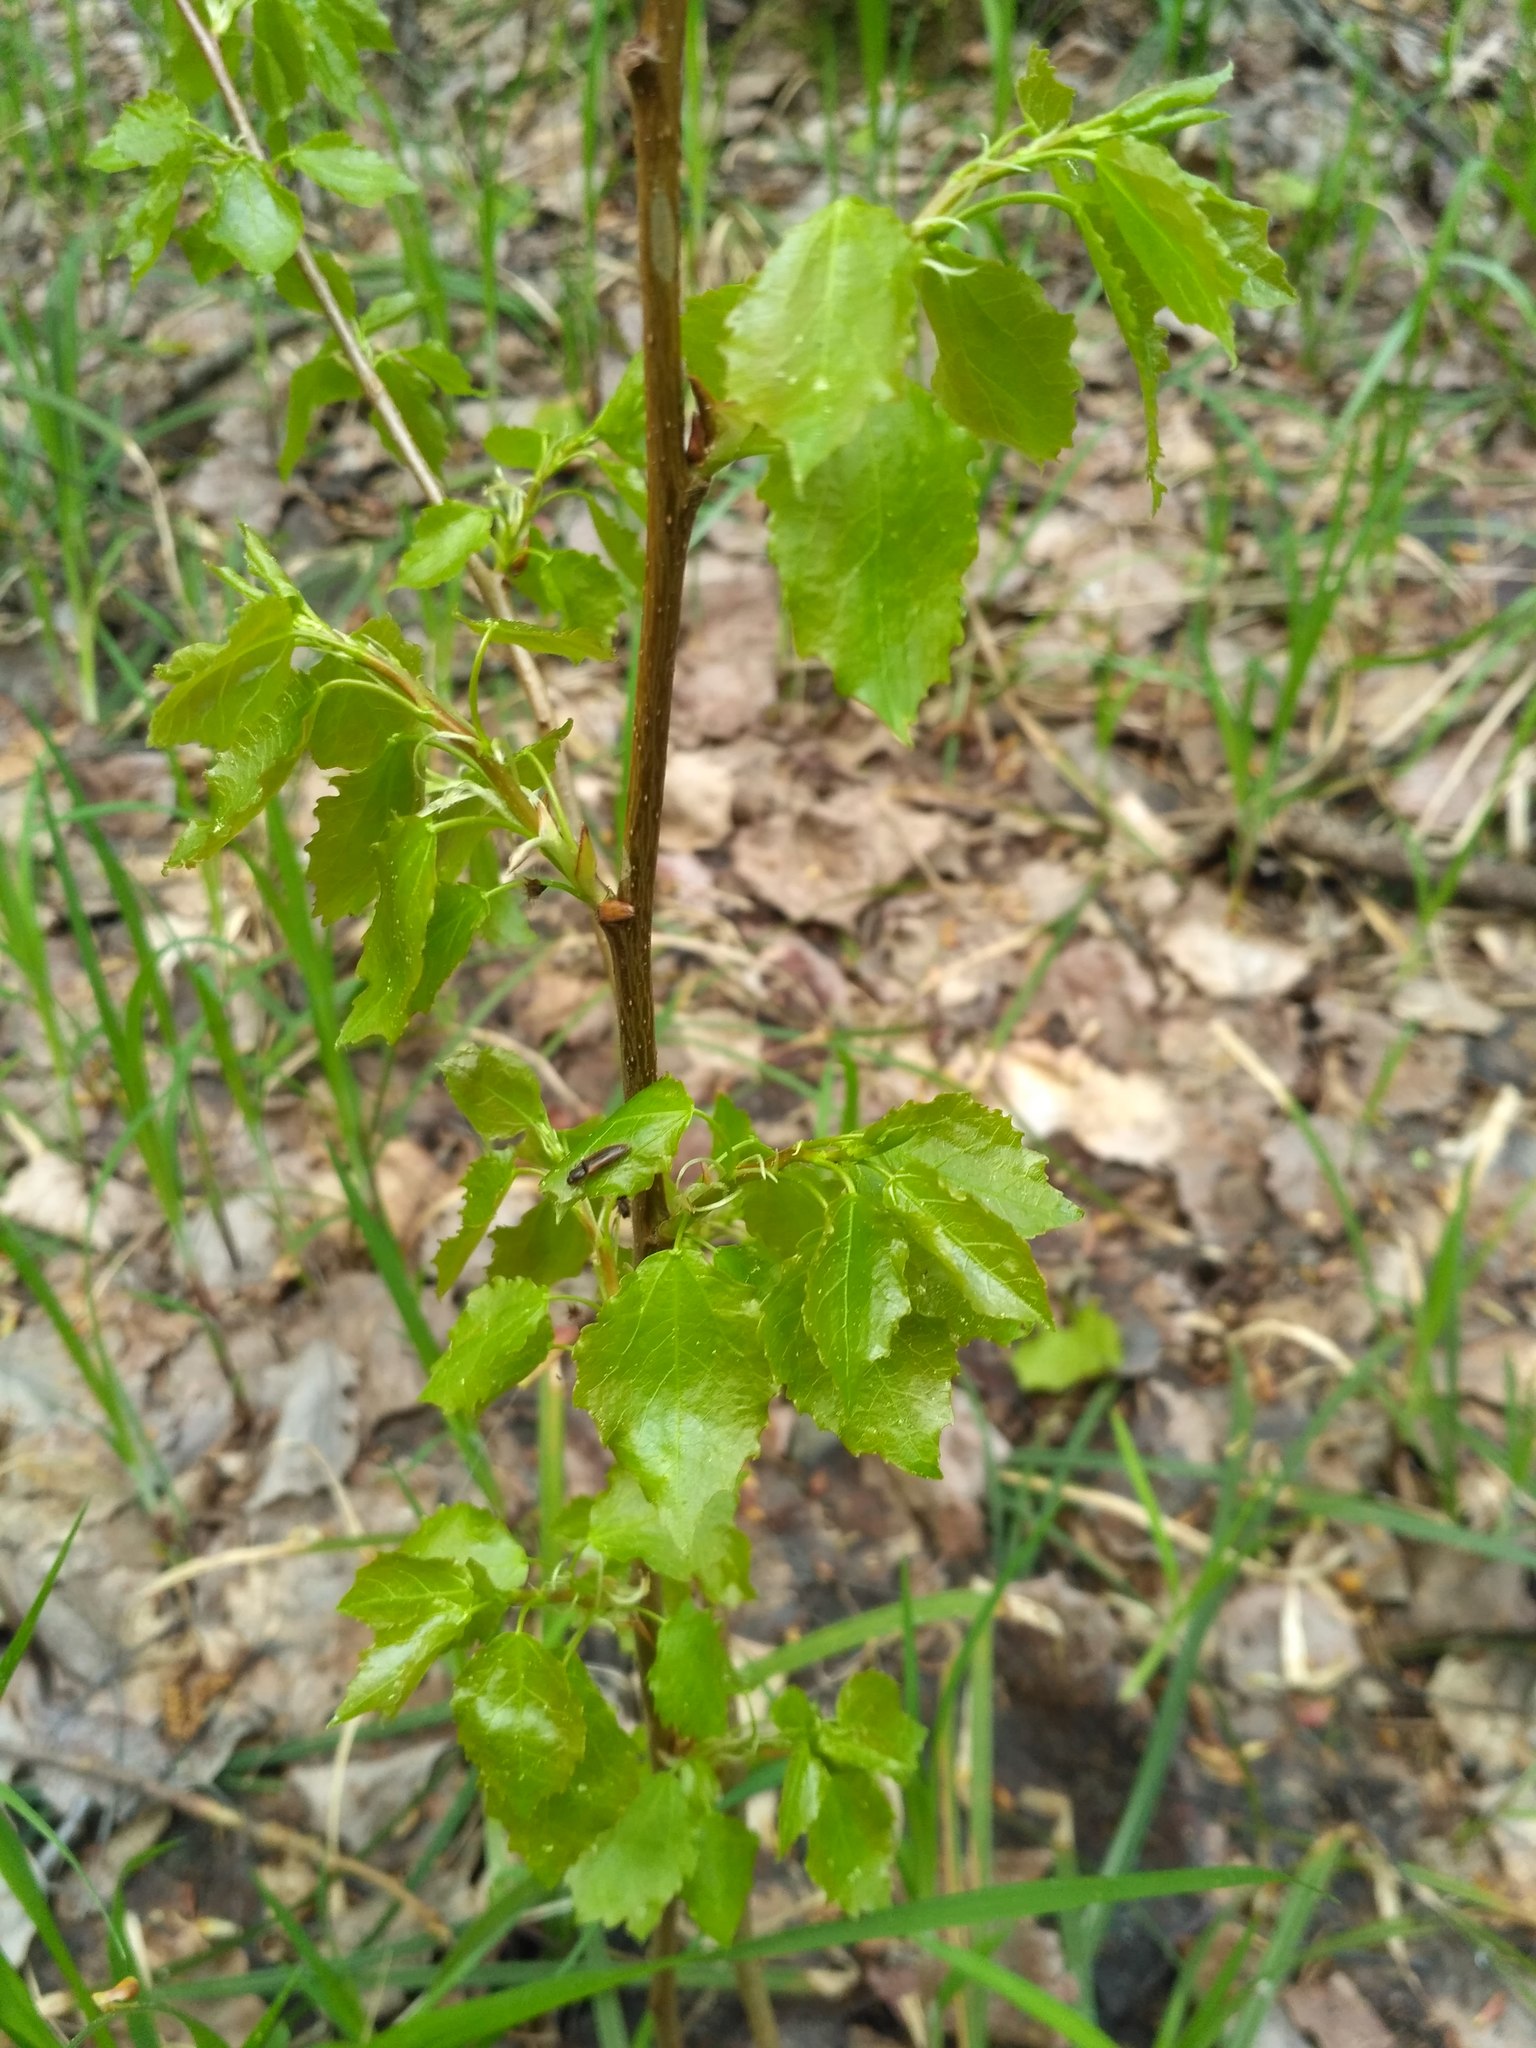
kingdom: Plantae
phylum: Tracheophyta
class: Magnoliopsida
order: Malpighiales
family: Salicaceae
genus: Populus
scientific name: Populus tremula
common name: European aspen
